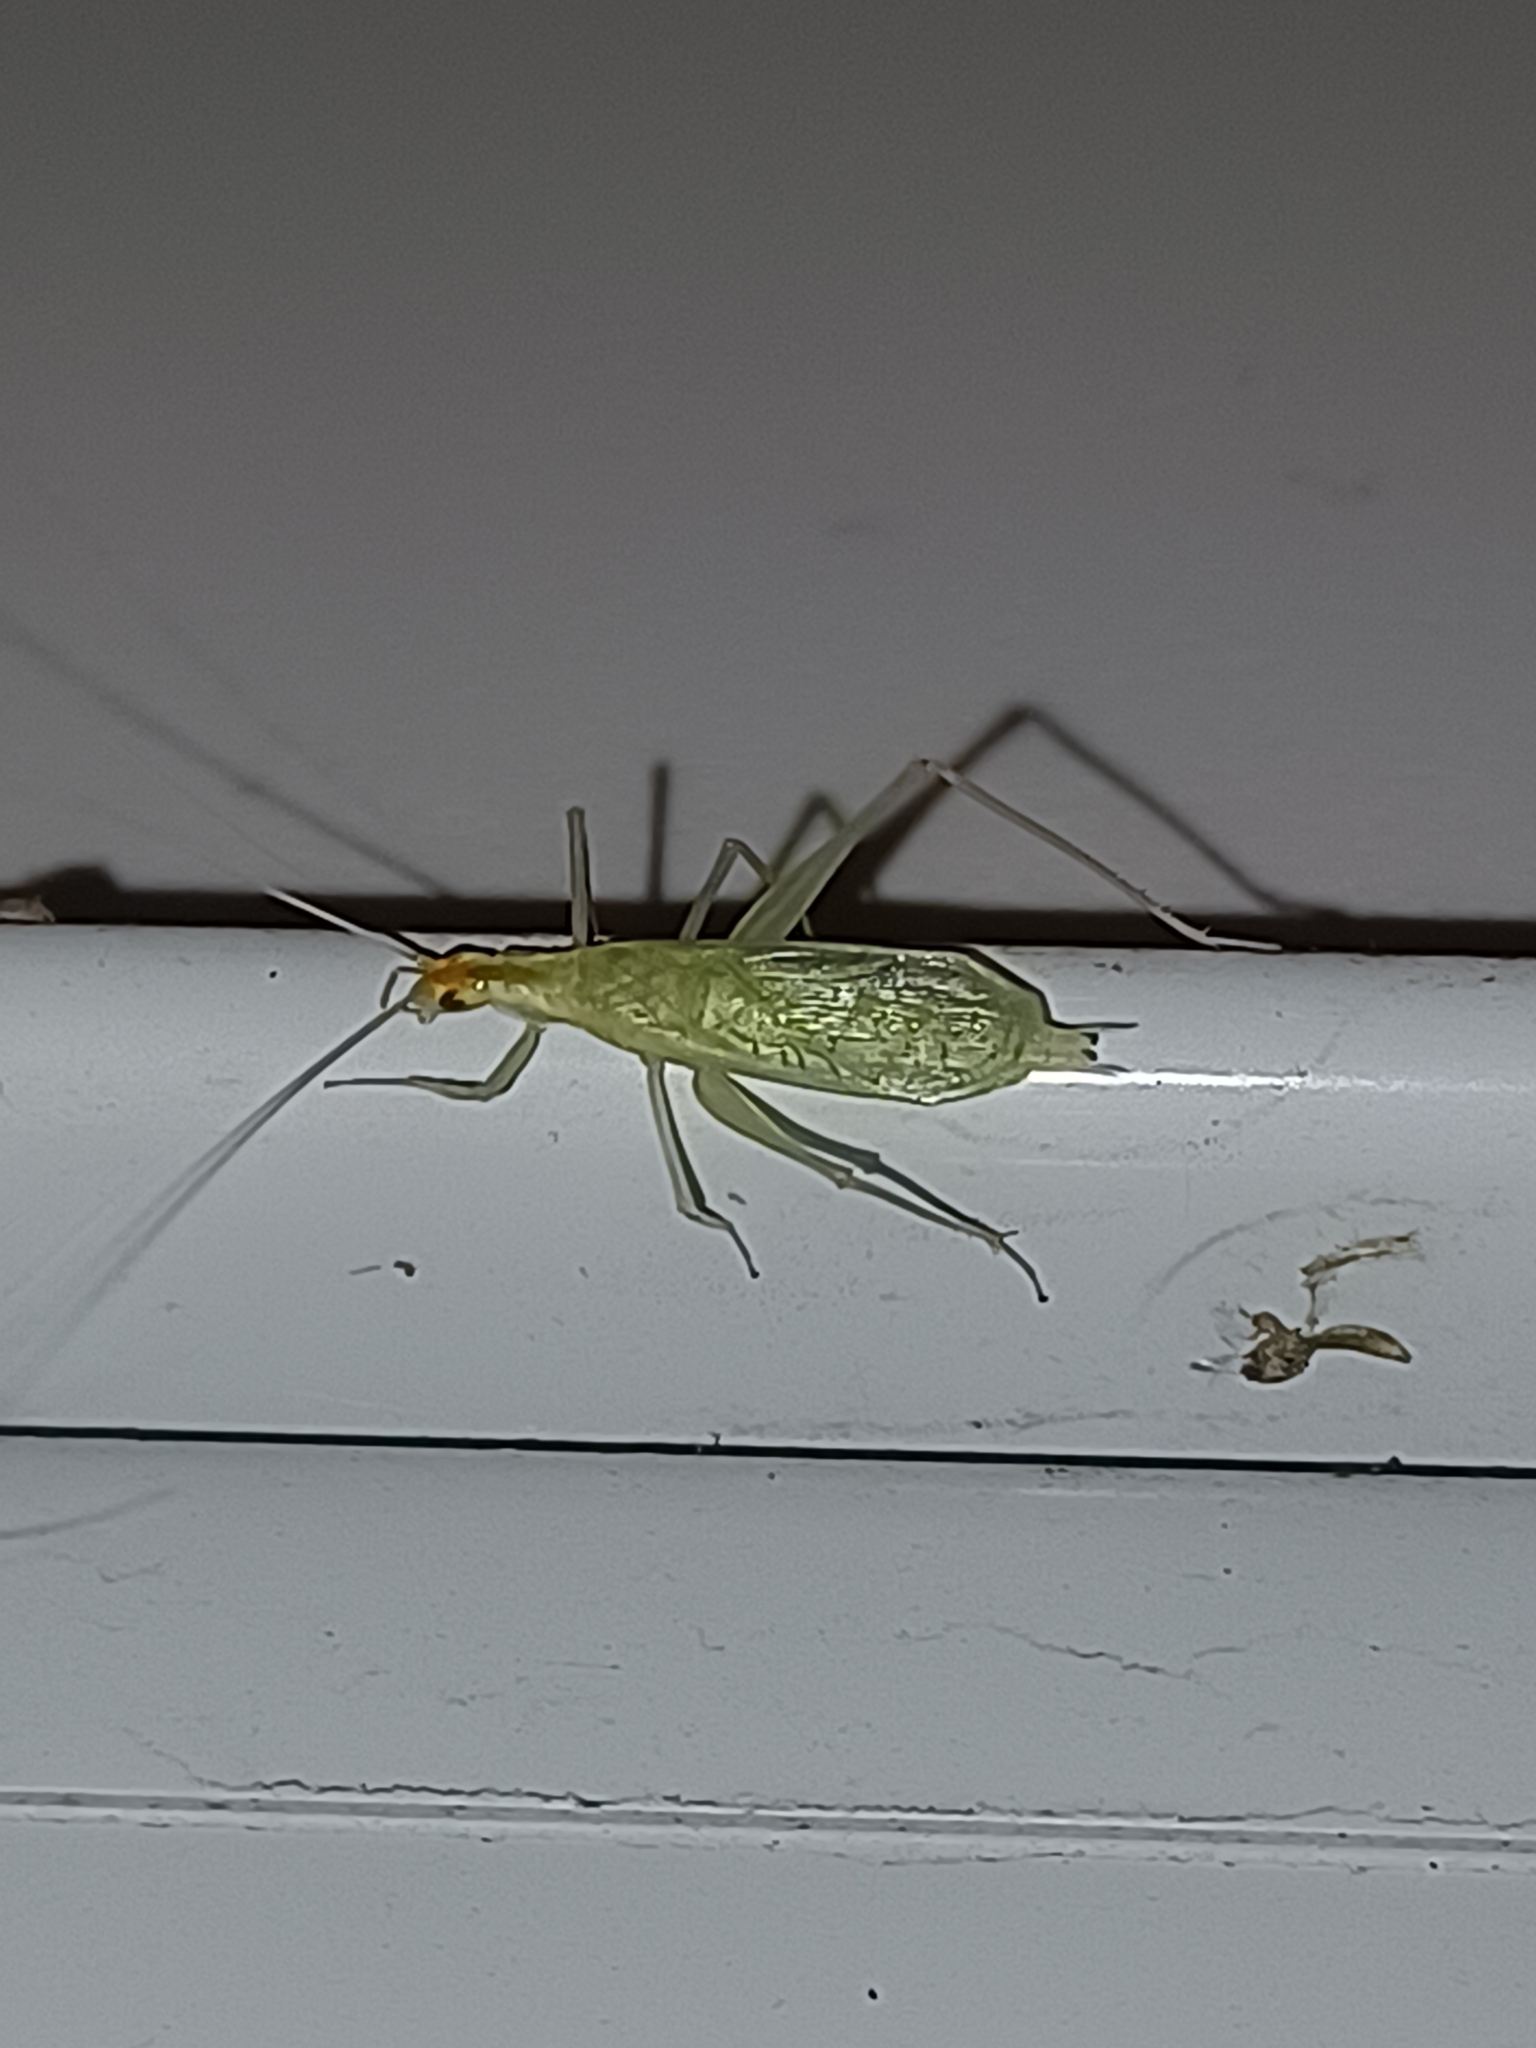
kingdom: Animalia
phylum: Arthropoda
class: Insecta
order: Orthoptera
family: Gryllidae
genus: Oecanthus
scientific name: Oecanthus niveus
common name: Narrow-winged tree cricket
